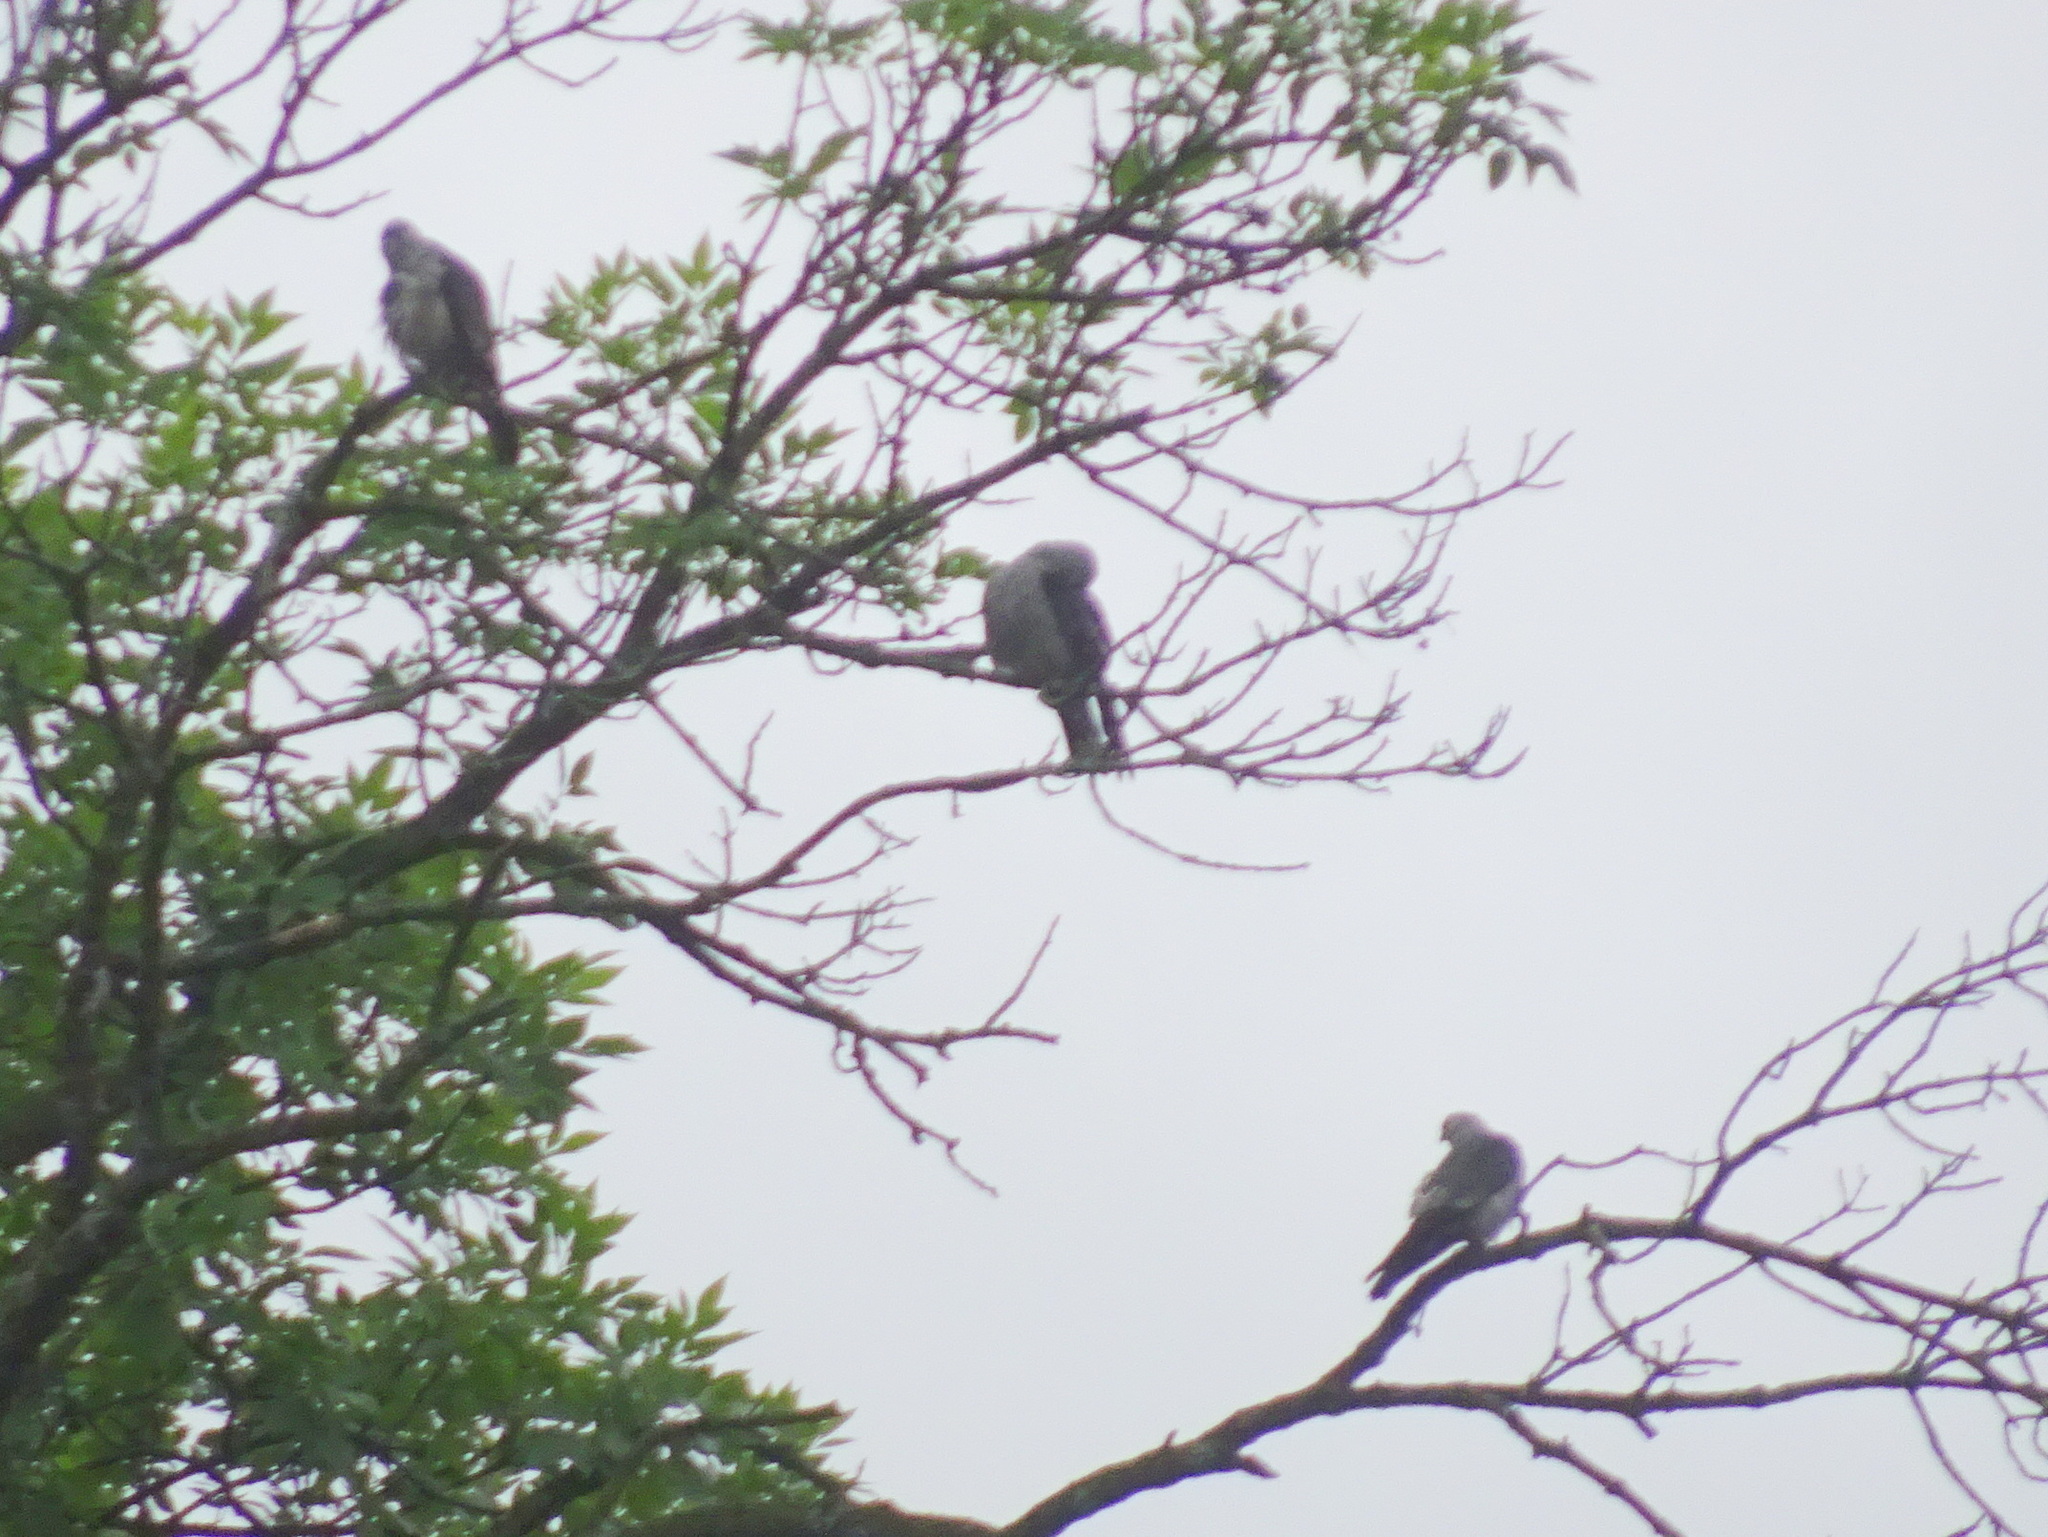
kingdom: Animalia
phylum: Chordata
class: Aves
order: Accipitriformes
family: Accipitridae
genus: Ictinia
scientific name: Ictinia mississippiensis
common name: Mississippi kite
